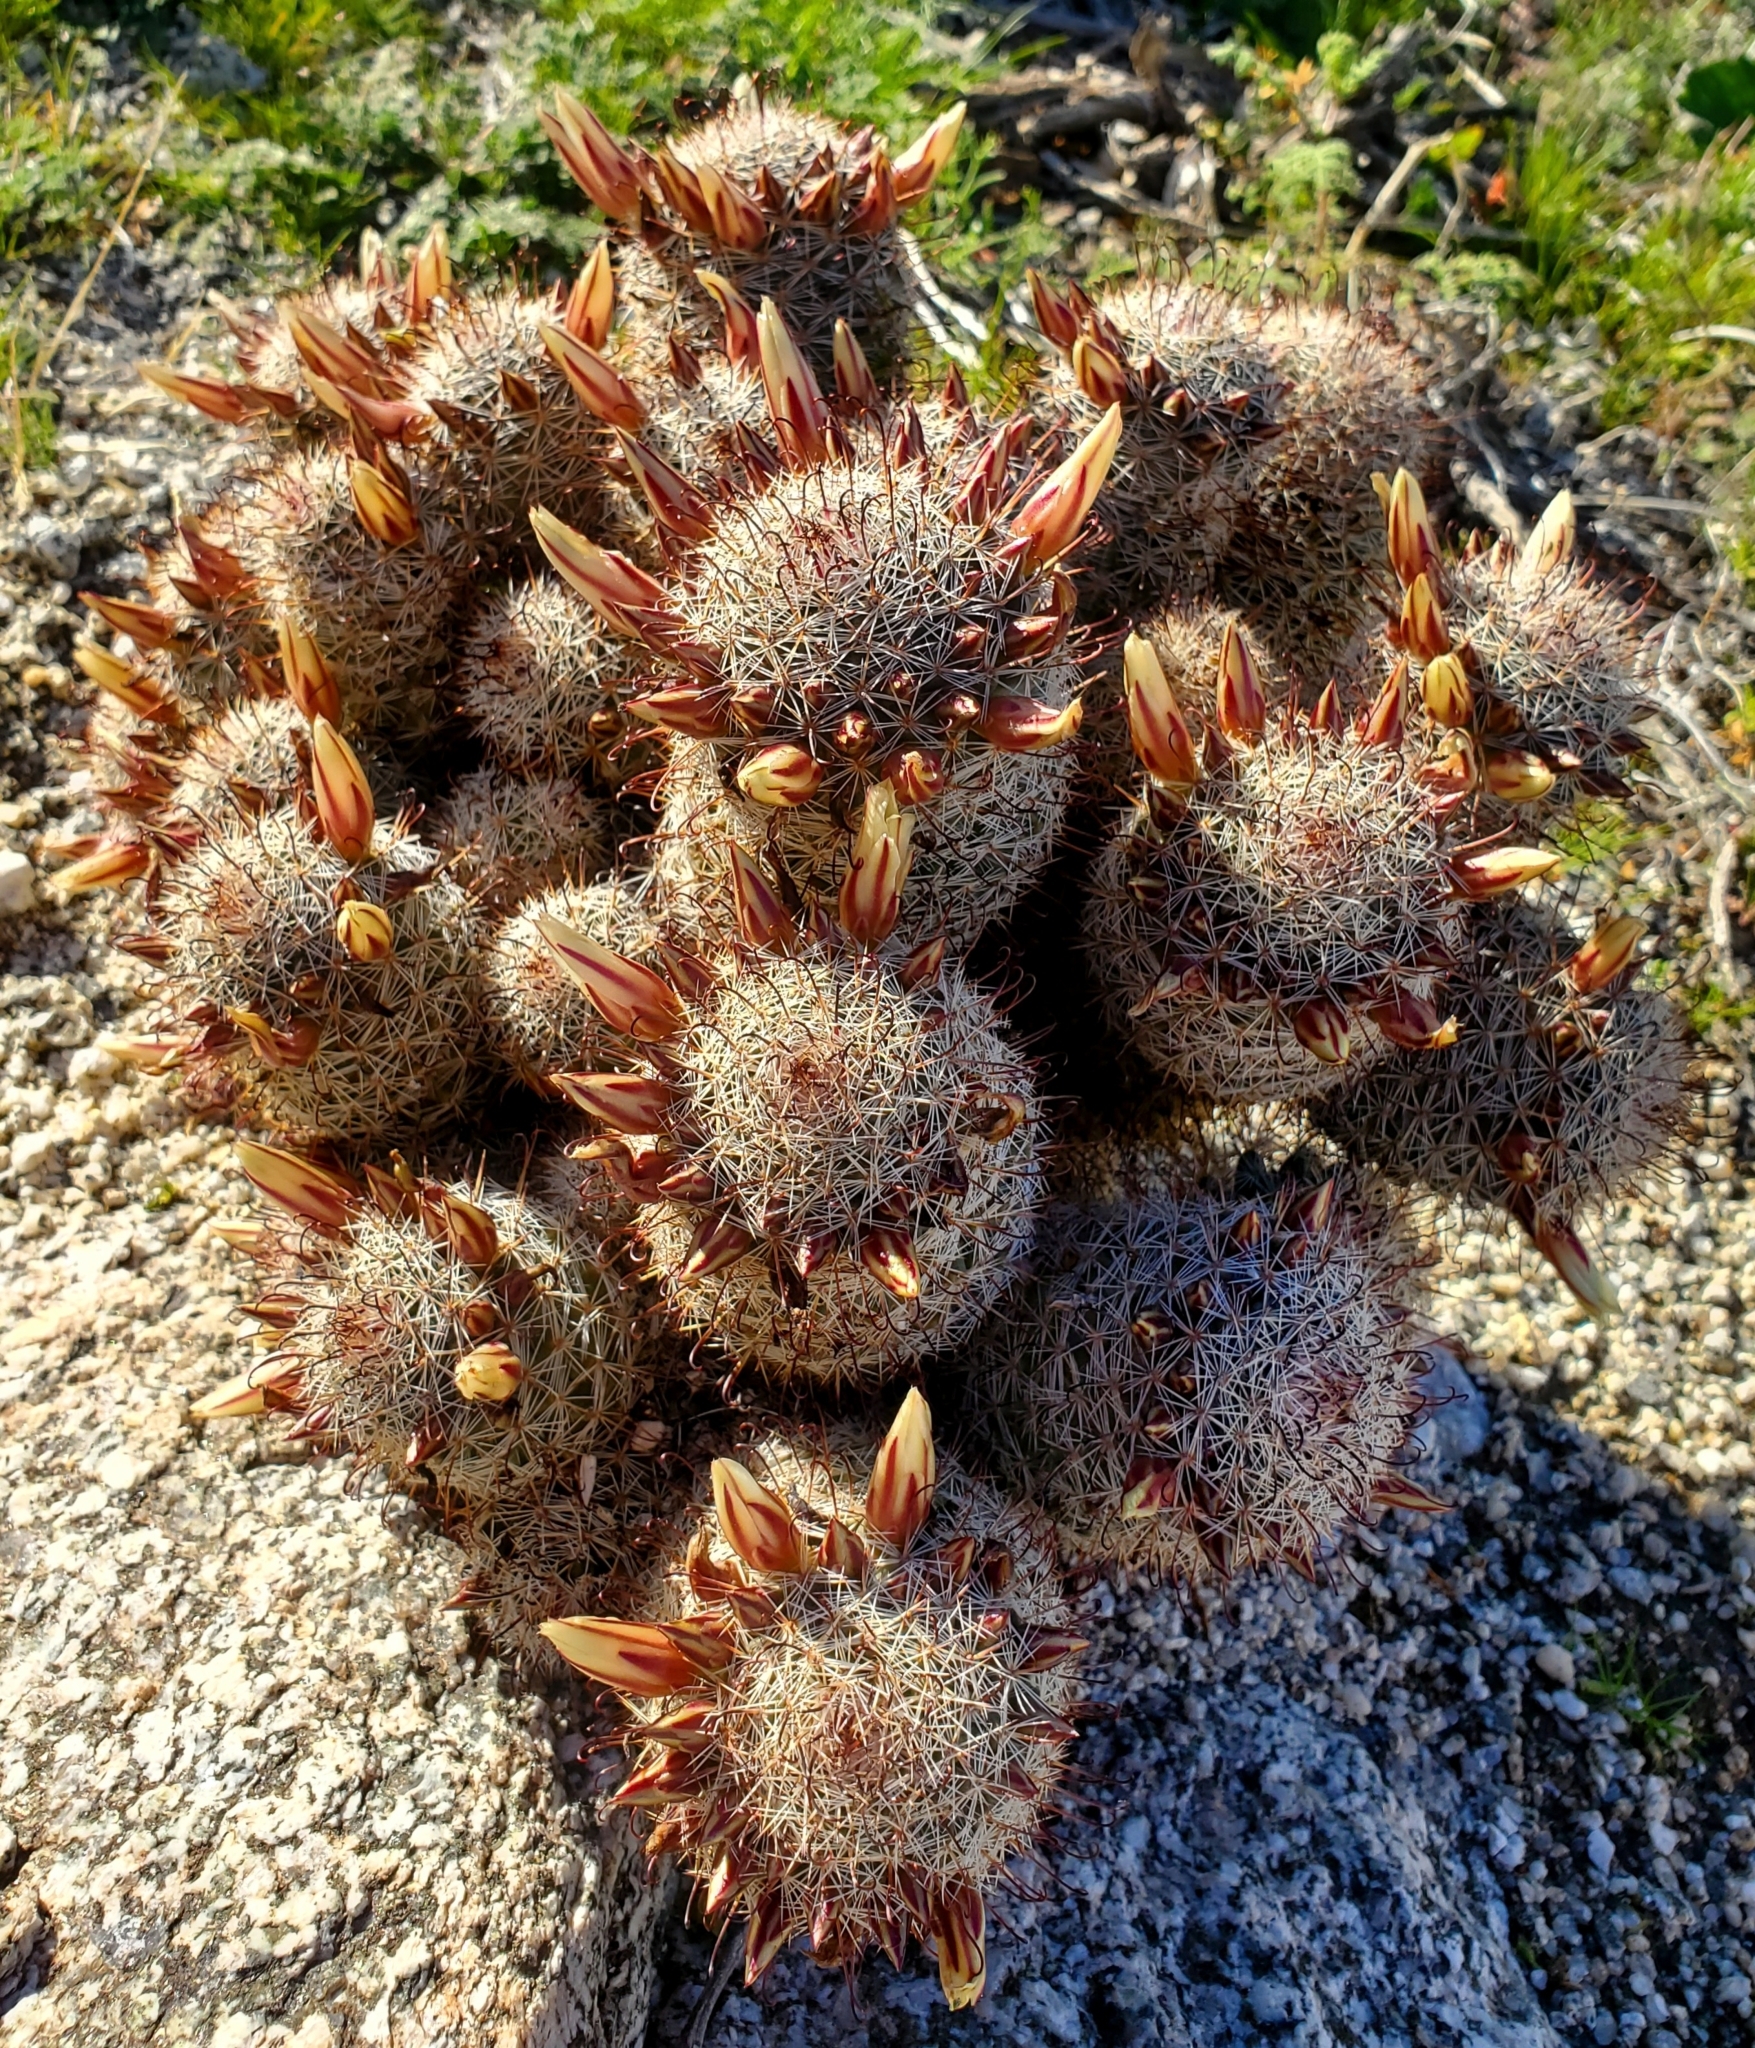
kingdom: Plantae
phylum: Tracheophyta
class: Magnoliopsida
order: Caryophyllales
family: Cactaceae
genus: Cochemiea
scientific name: Cochemiea dioica
